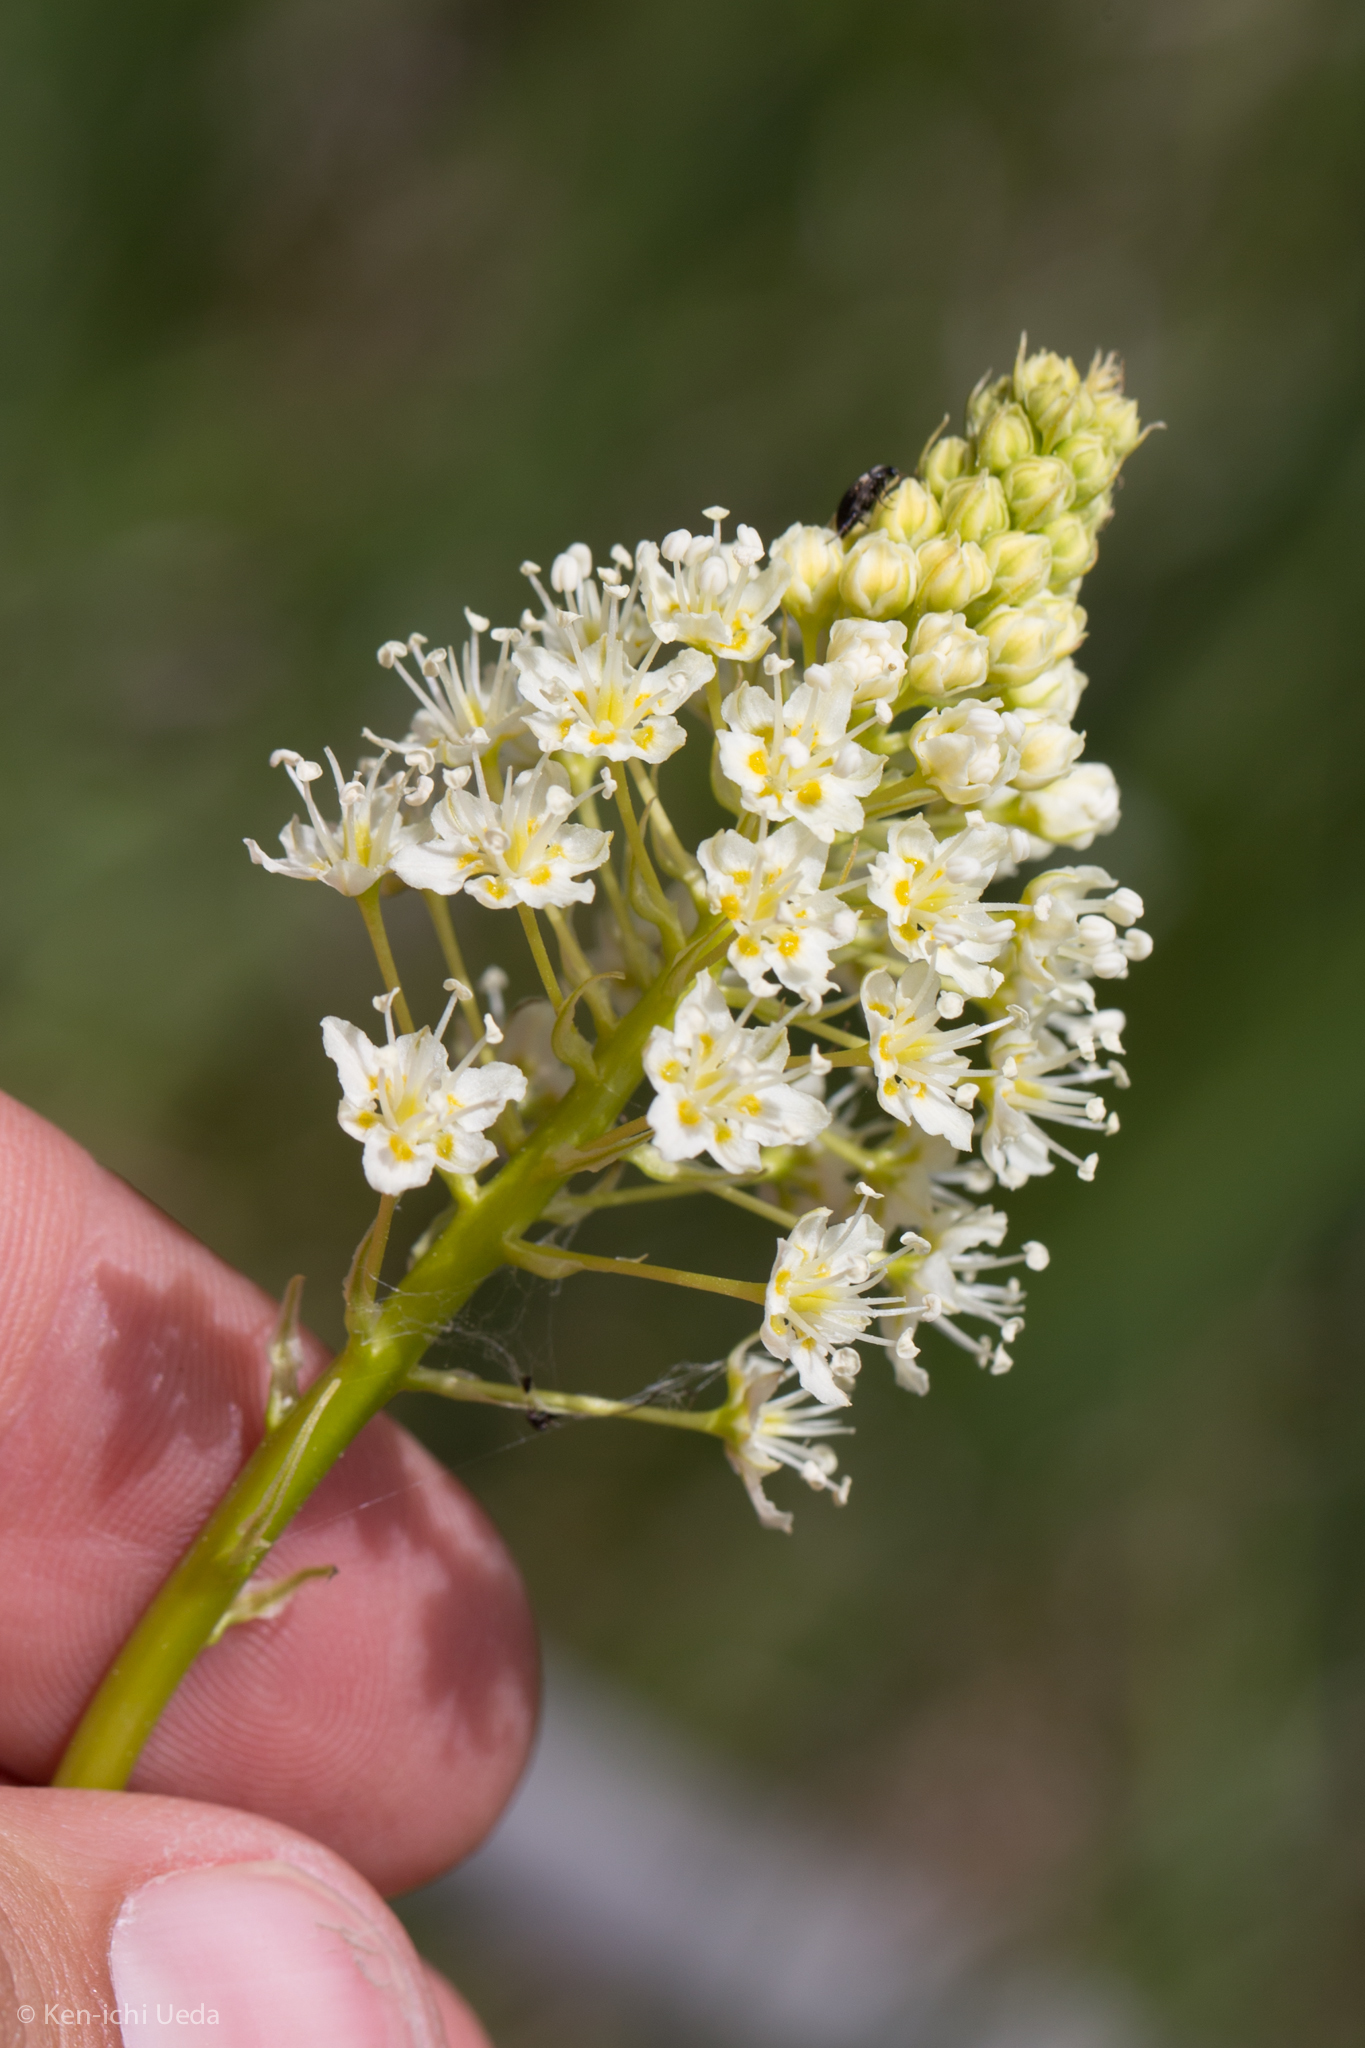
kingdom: Plantae
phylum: Tracheophyta
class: Liliopsida
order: Liliales
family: Melanthiaceae
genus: Toxicoscordion
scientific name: Toxicoscordion venenosum
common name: Meadow death camas
